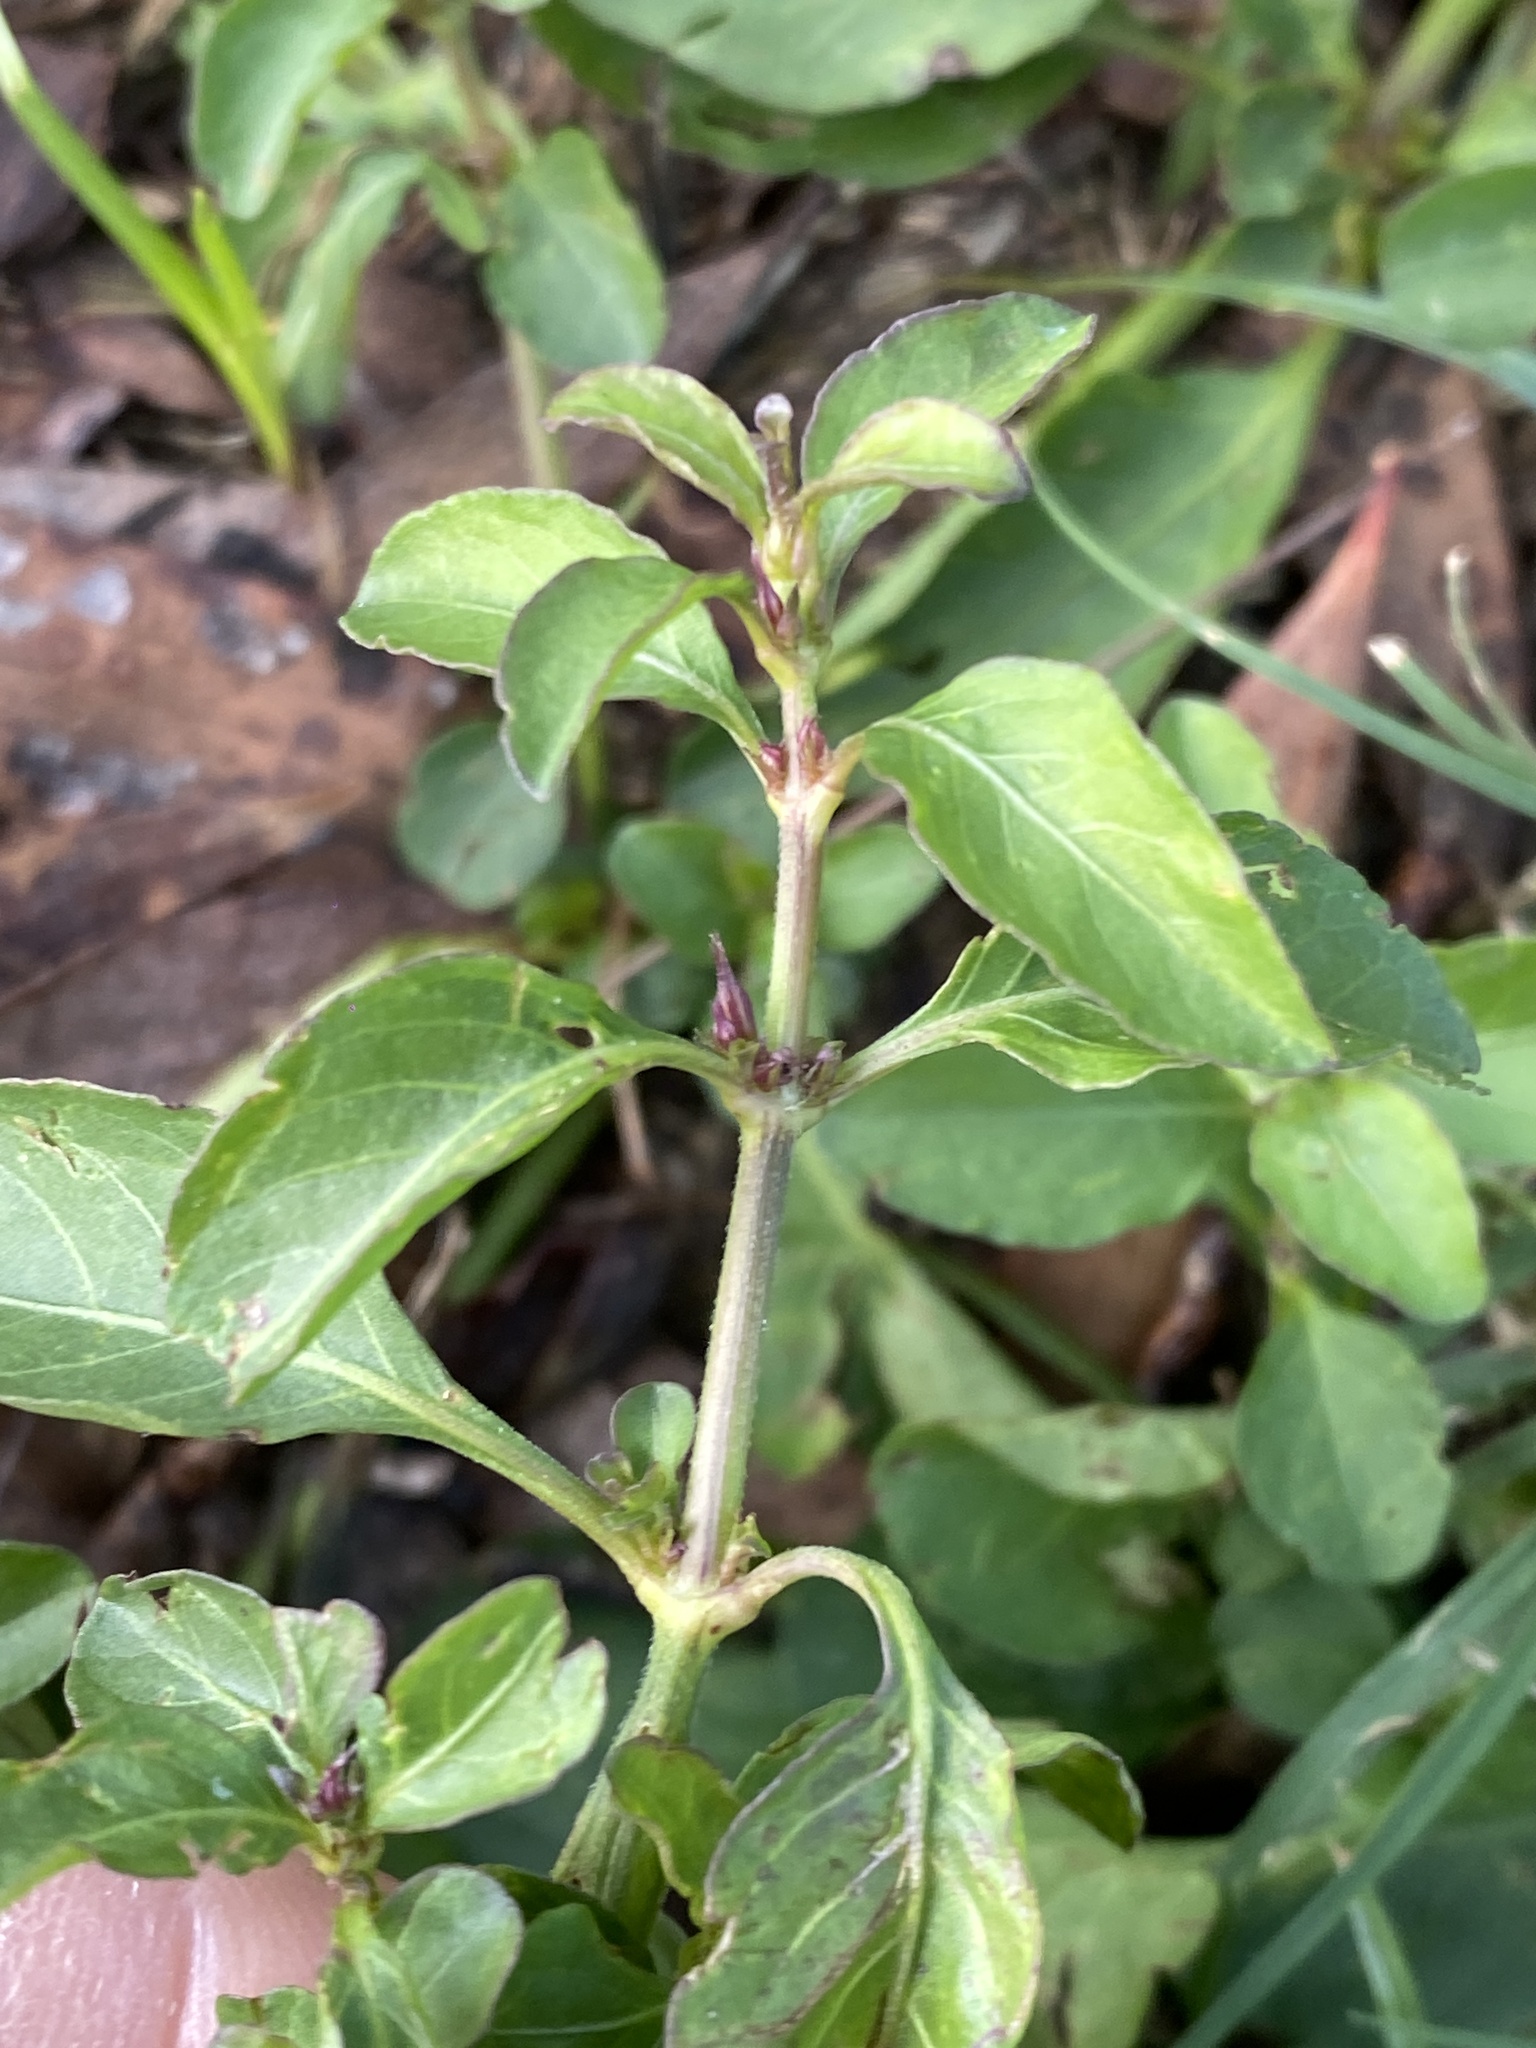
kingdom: Plantae
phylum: Tracheophyta
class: Magnoliopsida
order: Lamiales
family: Acanthaceae
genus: Hygrophila
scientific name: Hygrophila erecta
